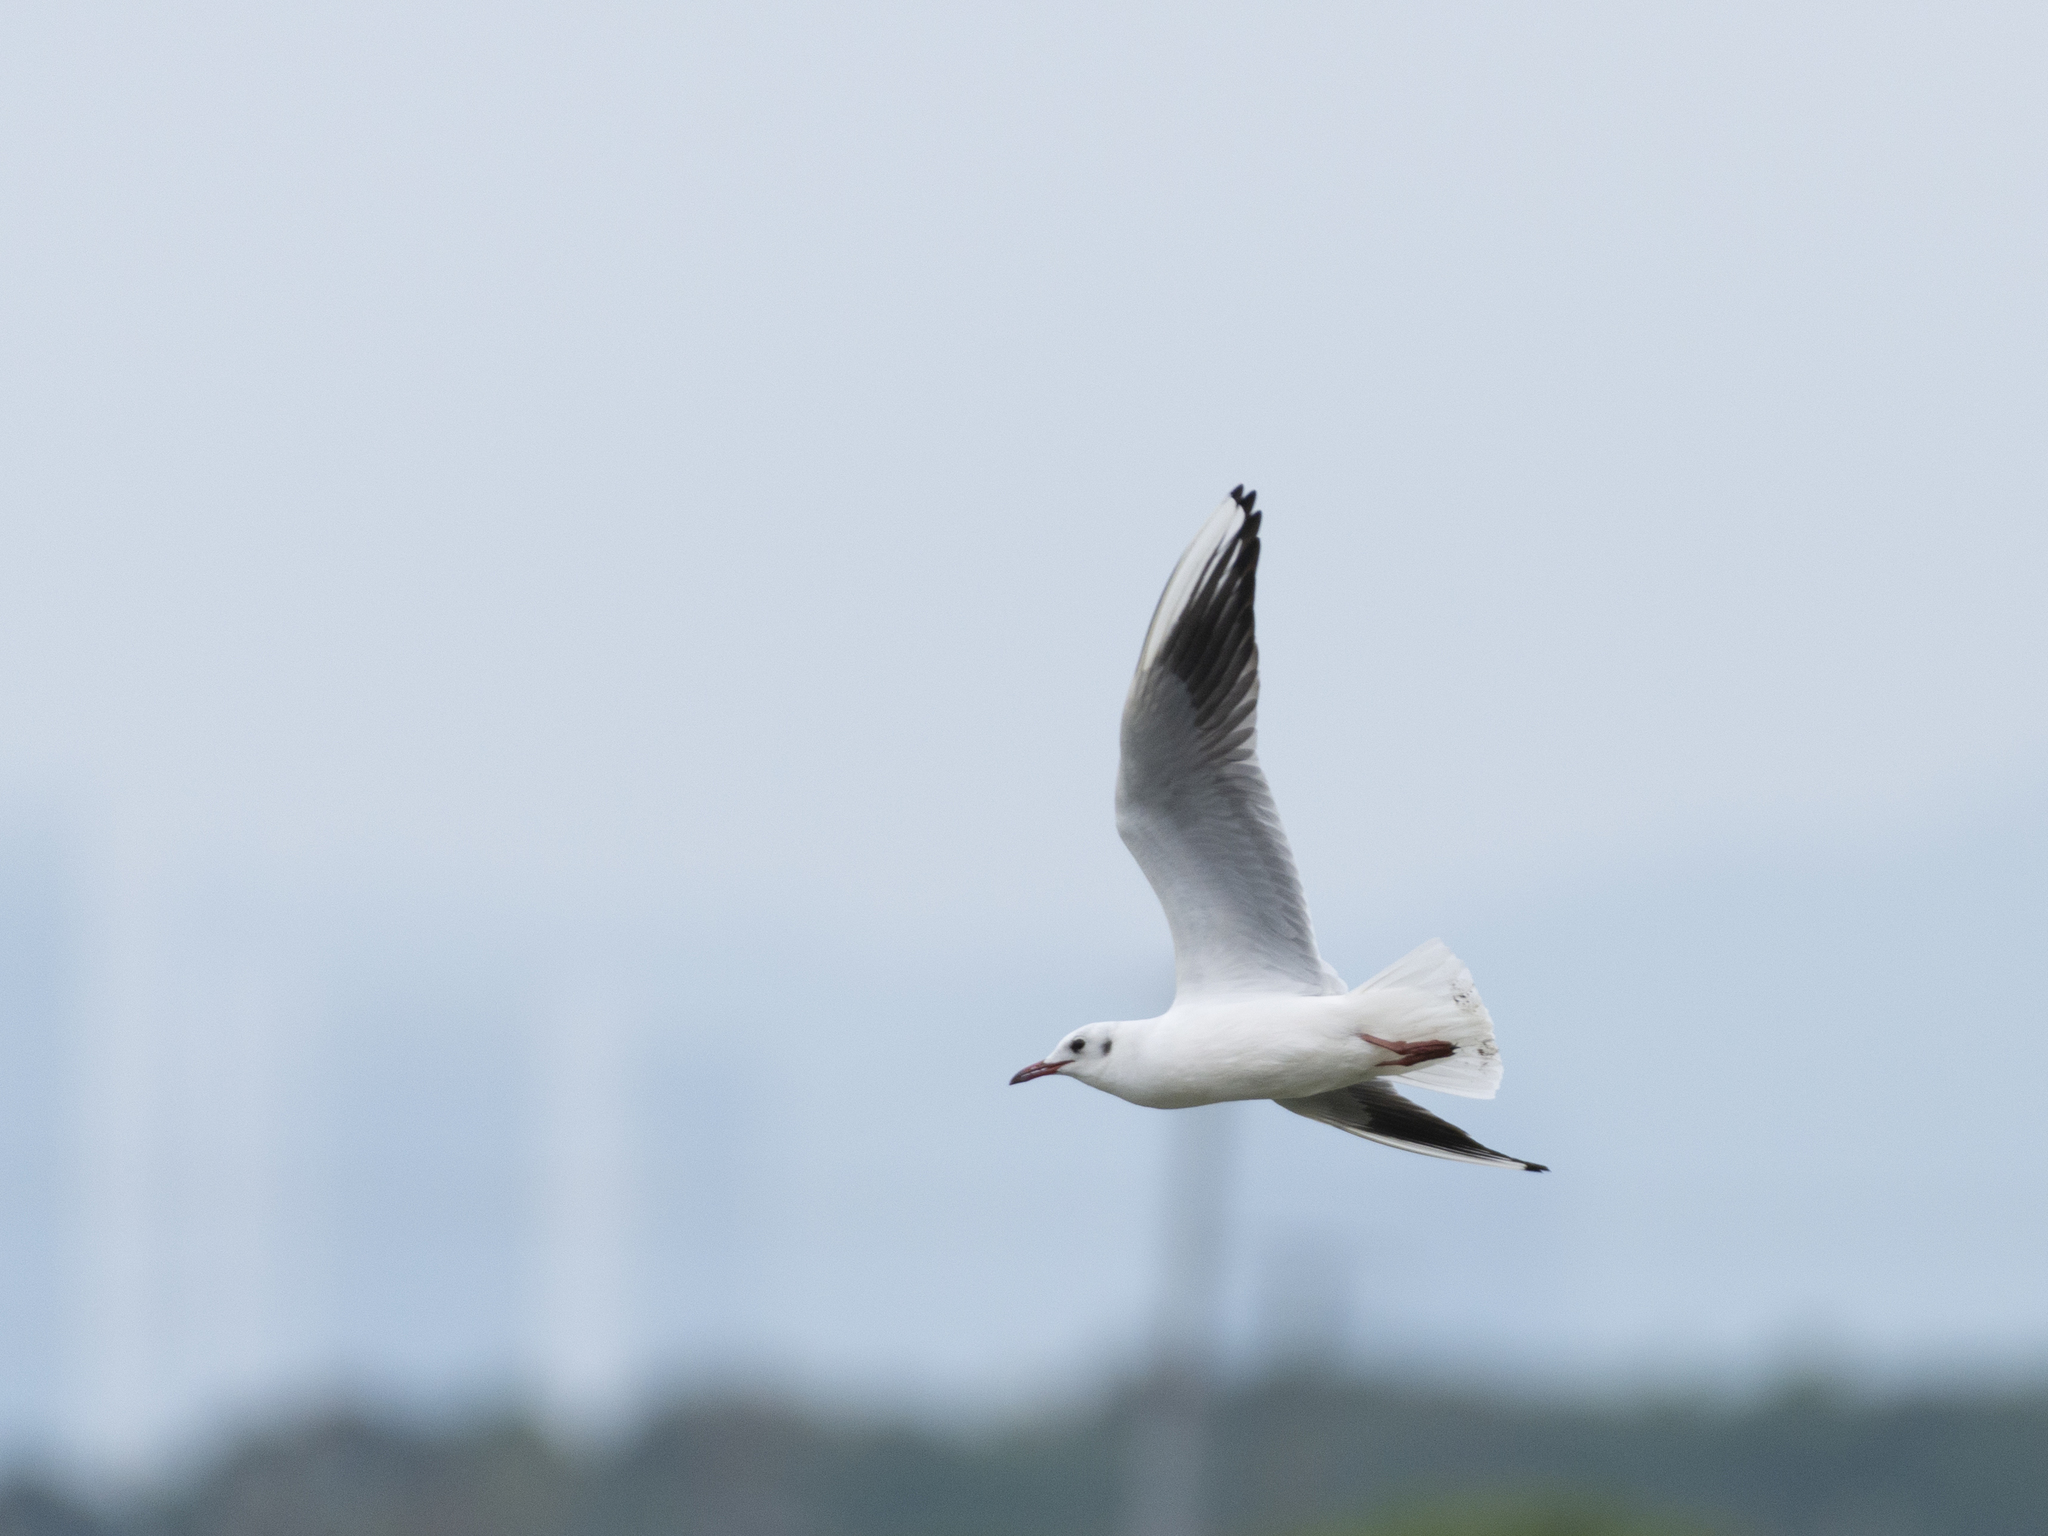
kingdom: Animalia
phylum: Chordata
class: Aves
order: Charadriiformes
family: Laridae
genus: Chroicocephalus
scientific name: Chroicocephalus ridibundus
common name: Black-headed gull
